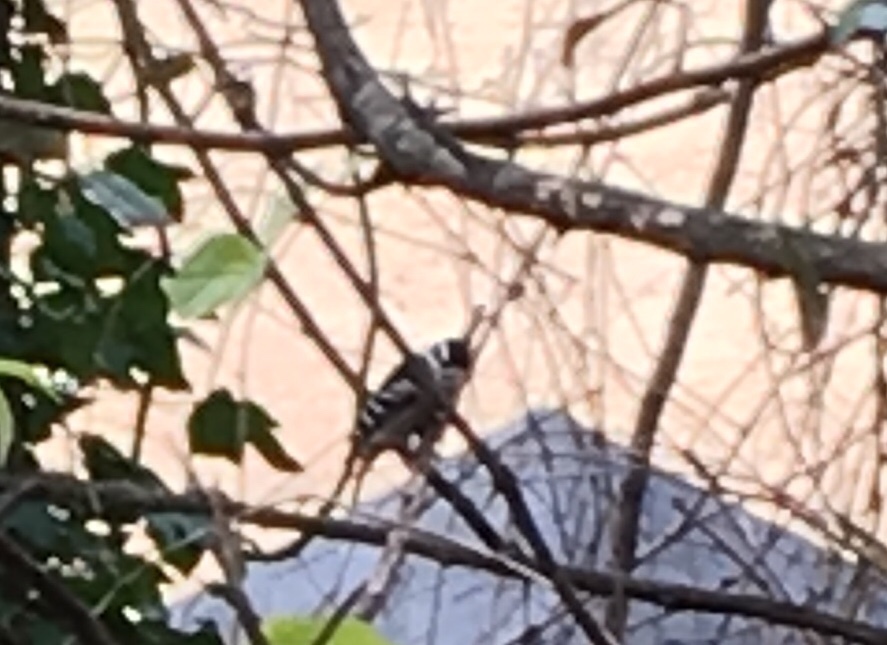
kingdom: Animalia
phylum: Chordata
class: Aves
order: Piciformes
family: Picidae
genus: Dryobates
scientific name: Dryobates pubescens
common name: Downy woodpecker
